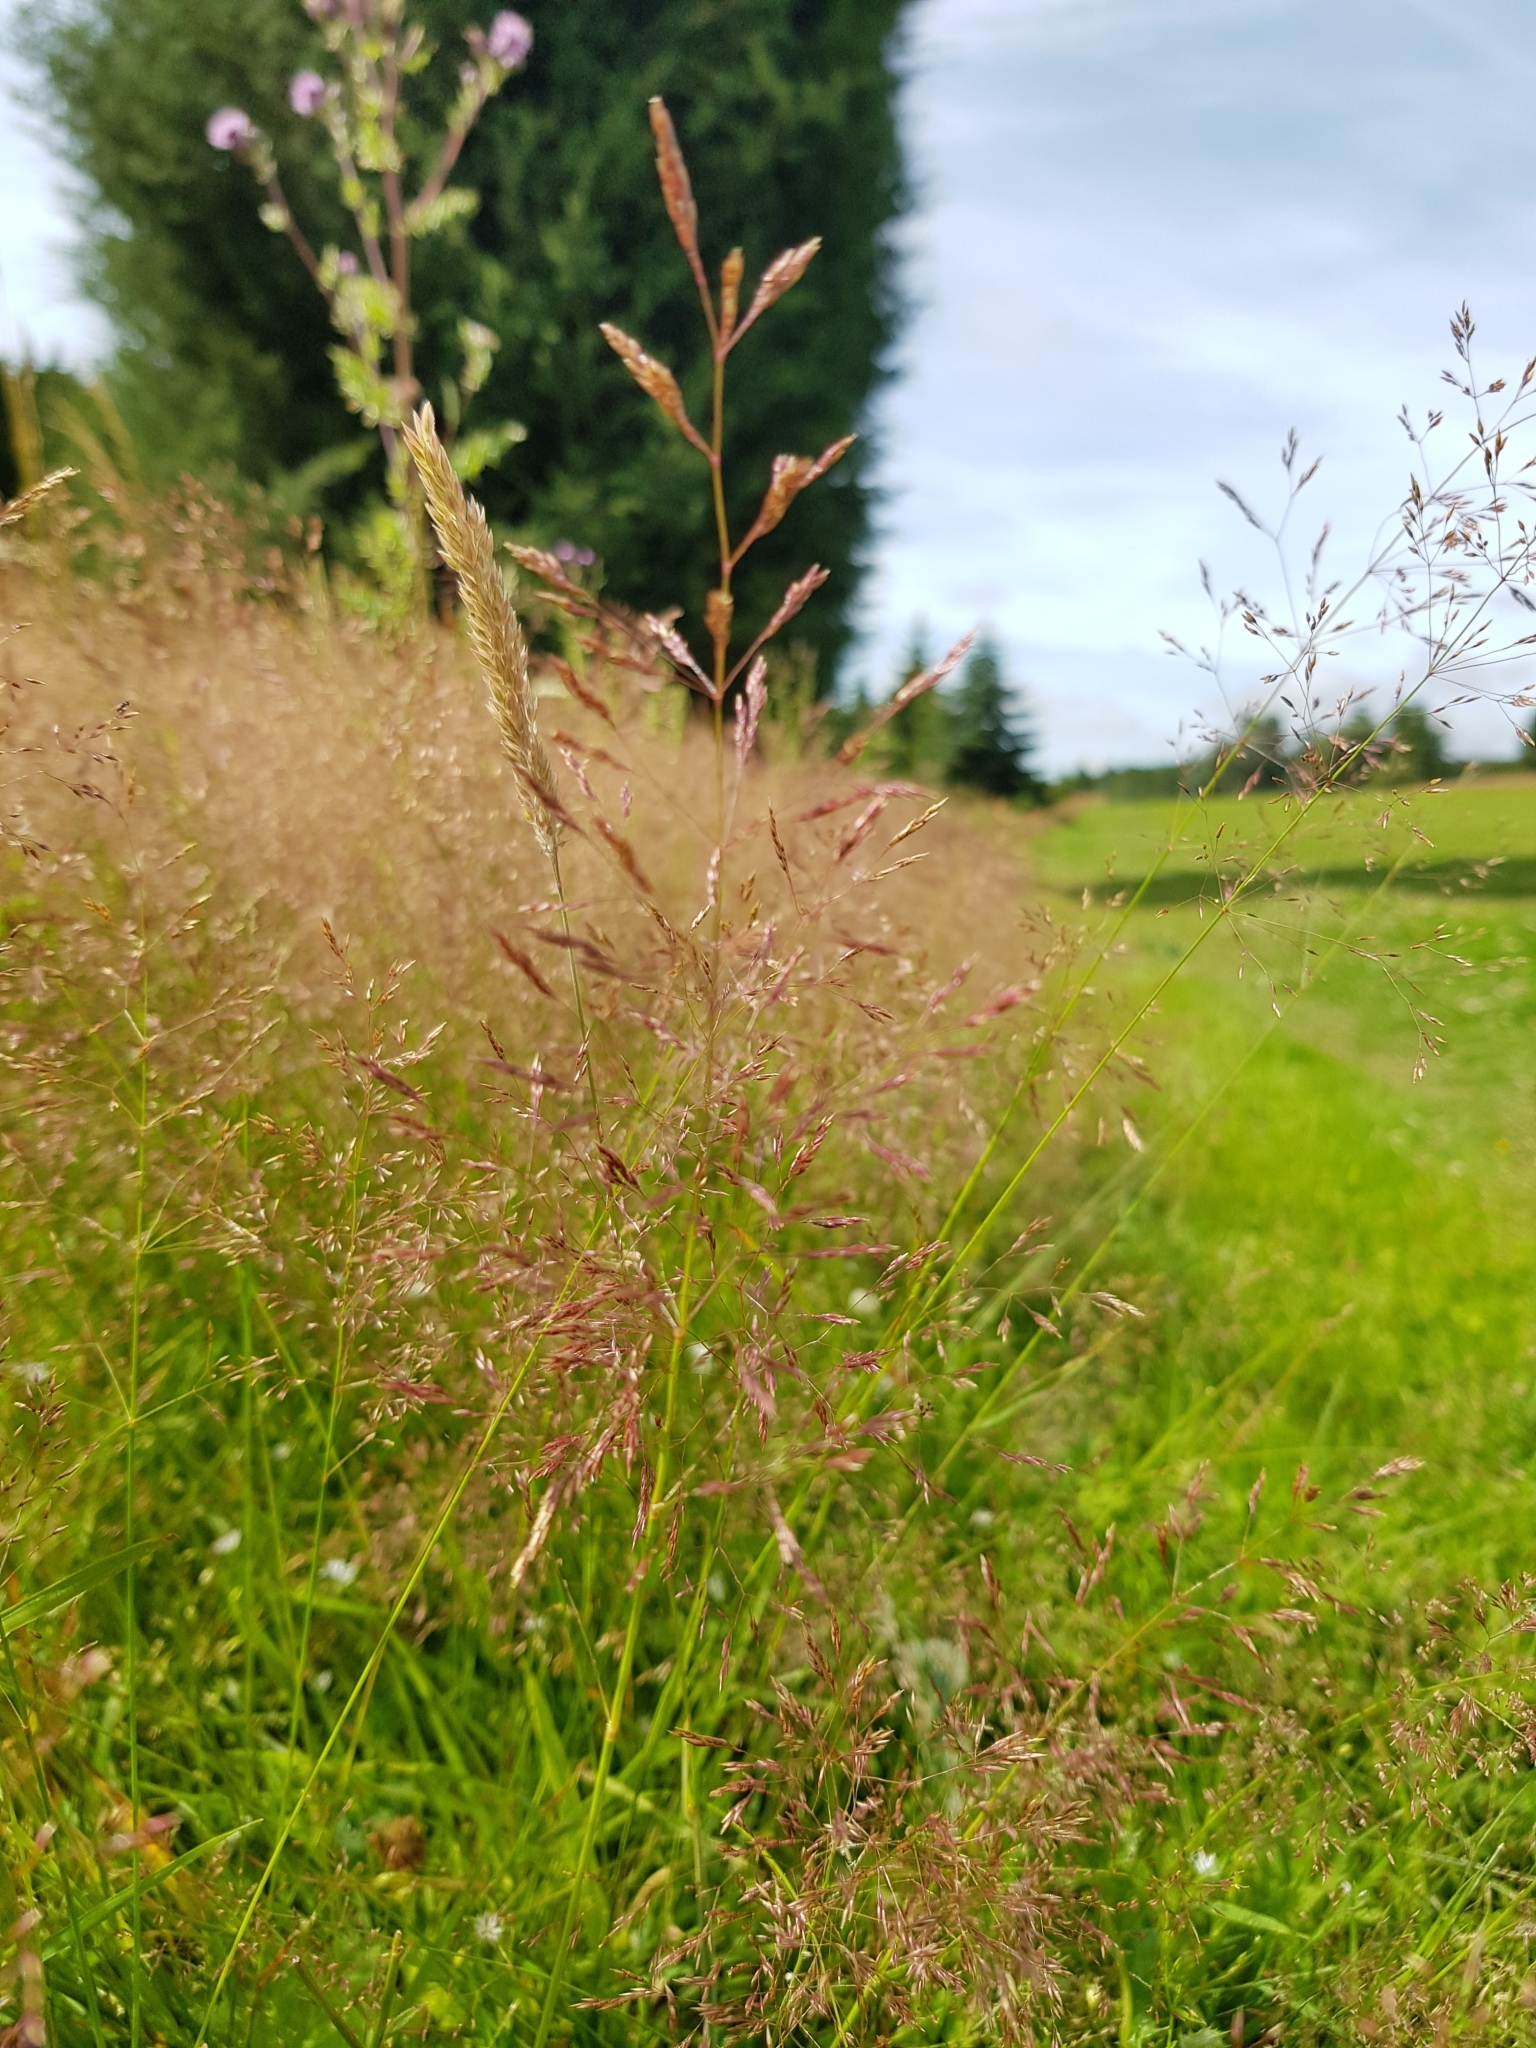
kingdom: Plantae
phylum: Tracheophyta
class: Liliopsida
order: Poales
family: Poaceae
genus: Festuca
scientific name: Festuca rubra
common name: Red fescue
